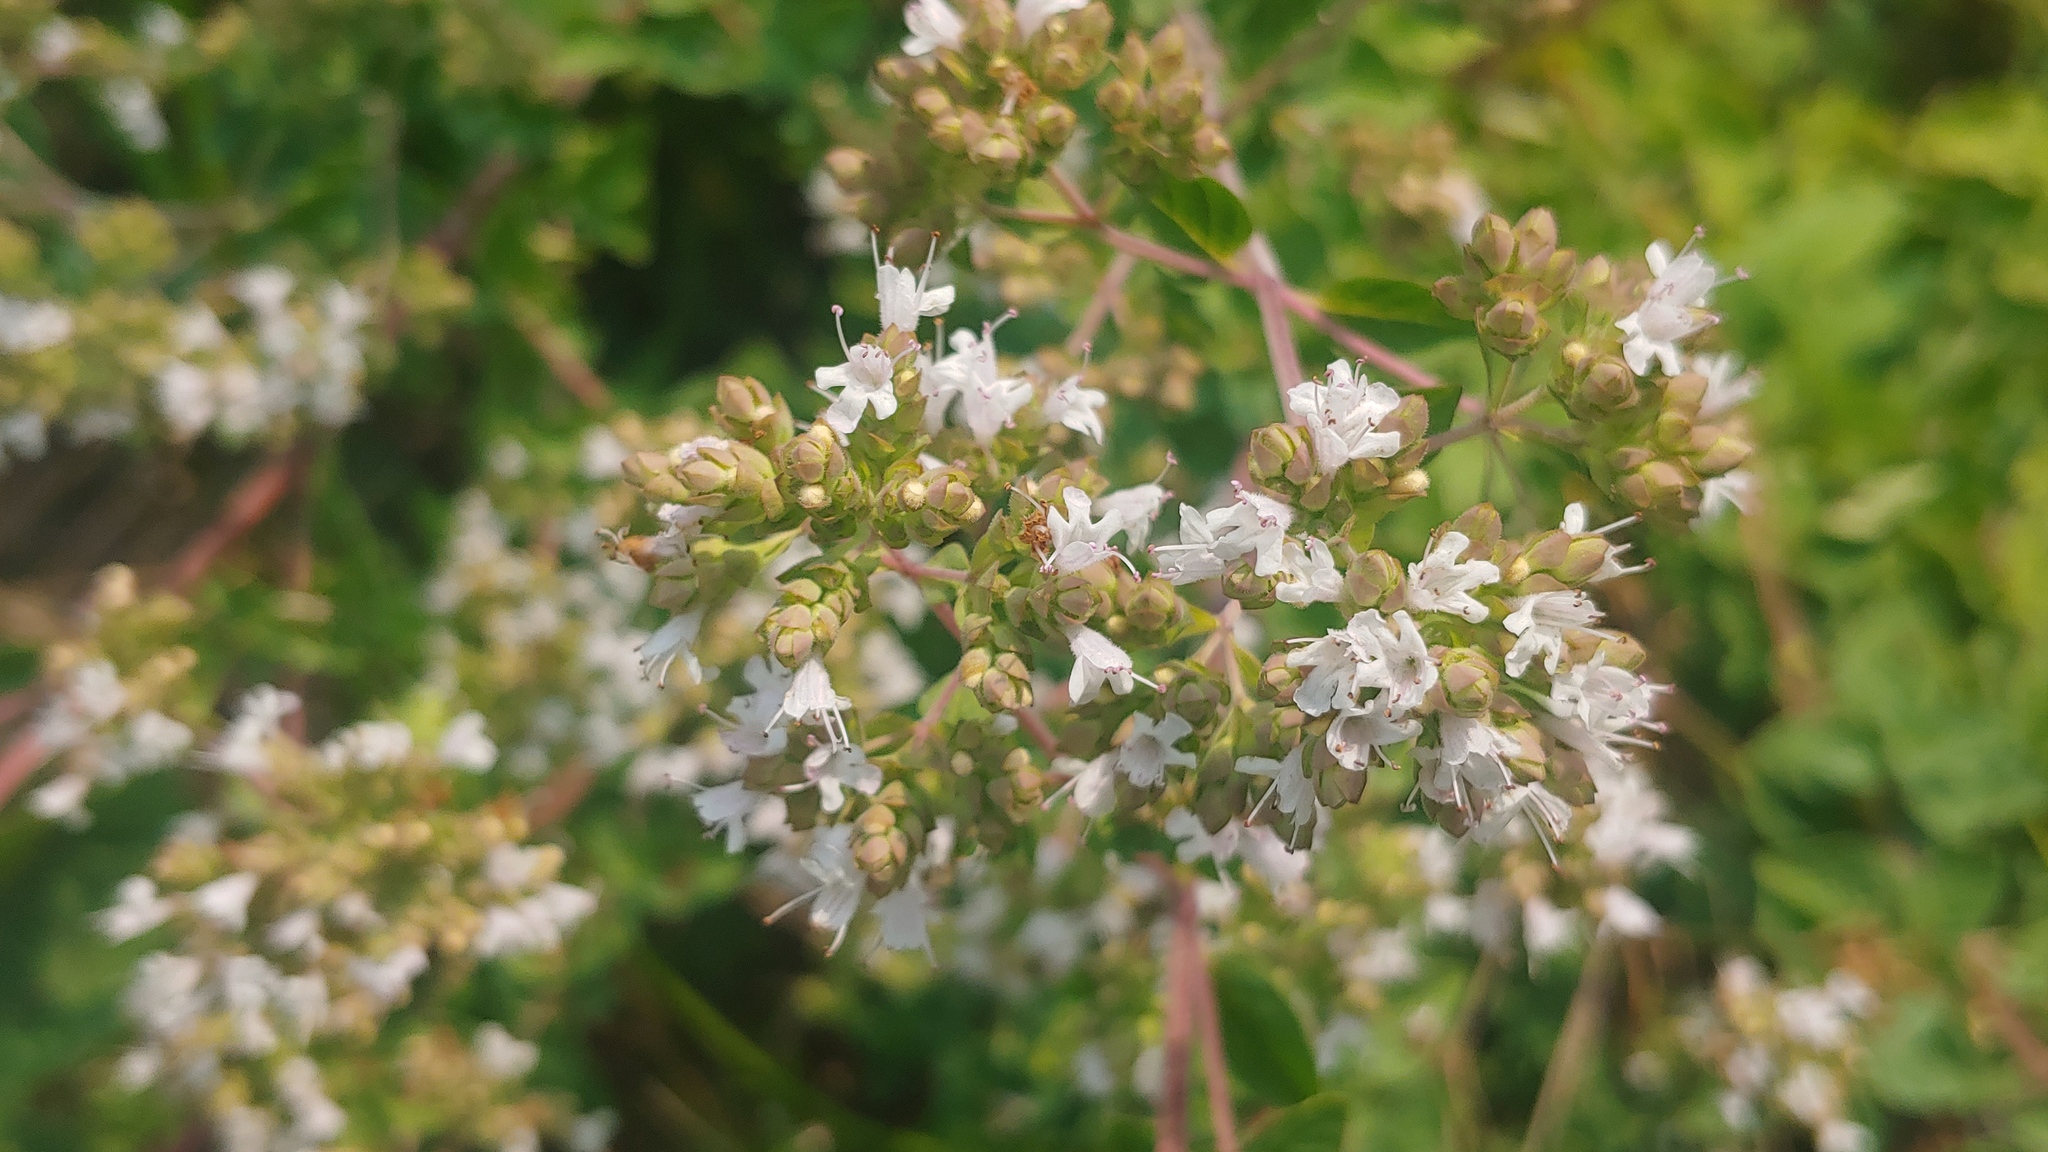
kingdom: Plantae
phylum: Tracheophyta
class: Magnoliopsida
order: Lamiales
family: Lamiaceae
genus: Origanum
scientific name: Origanum vulgare
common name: Wild marjoram
